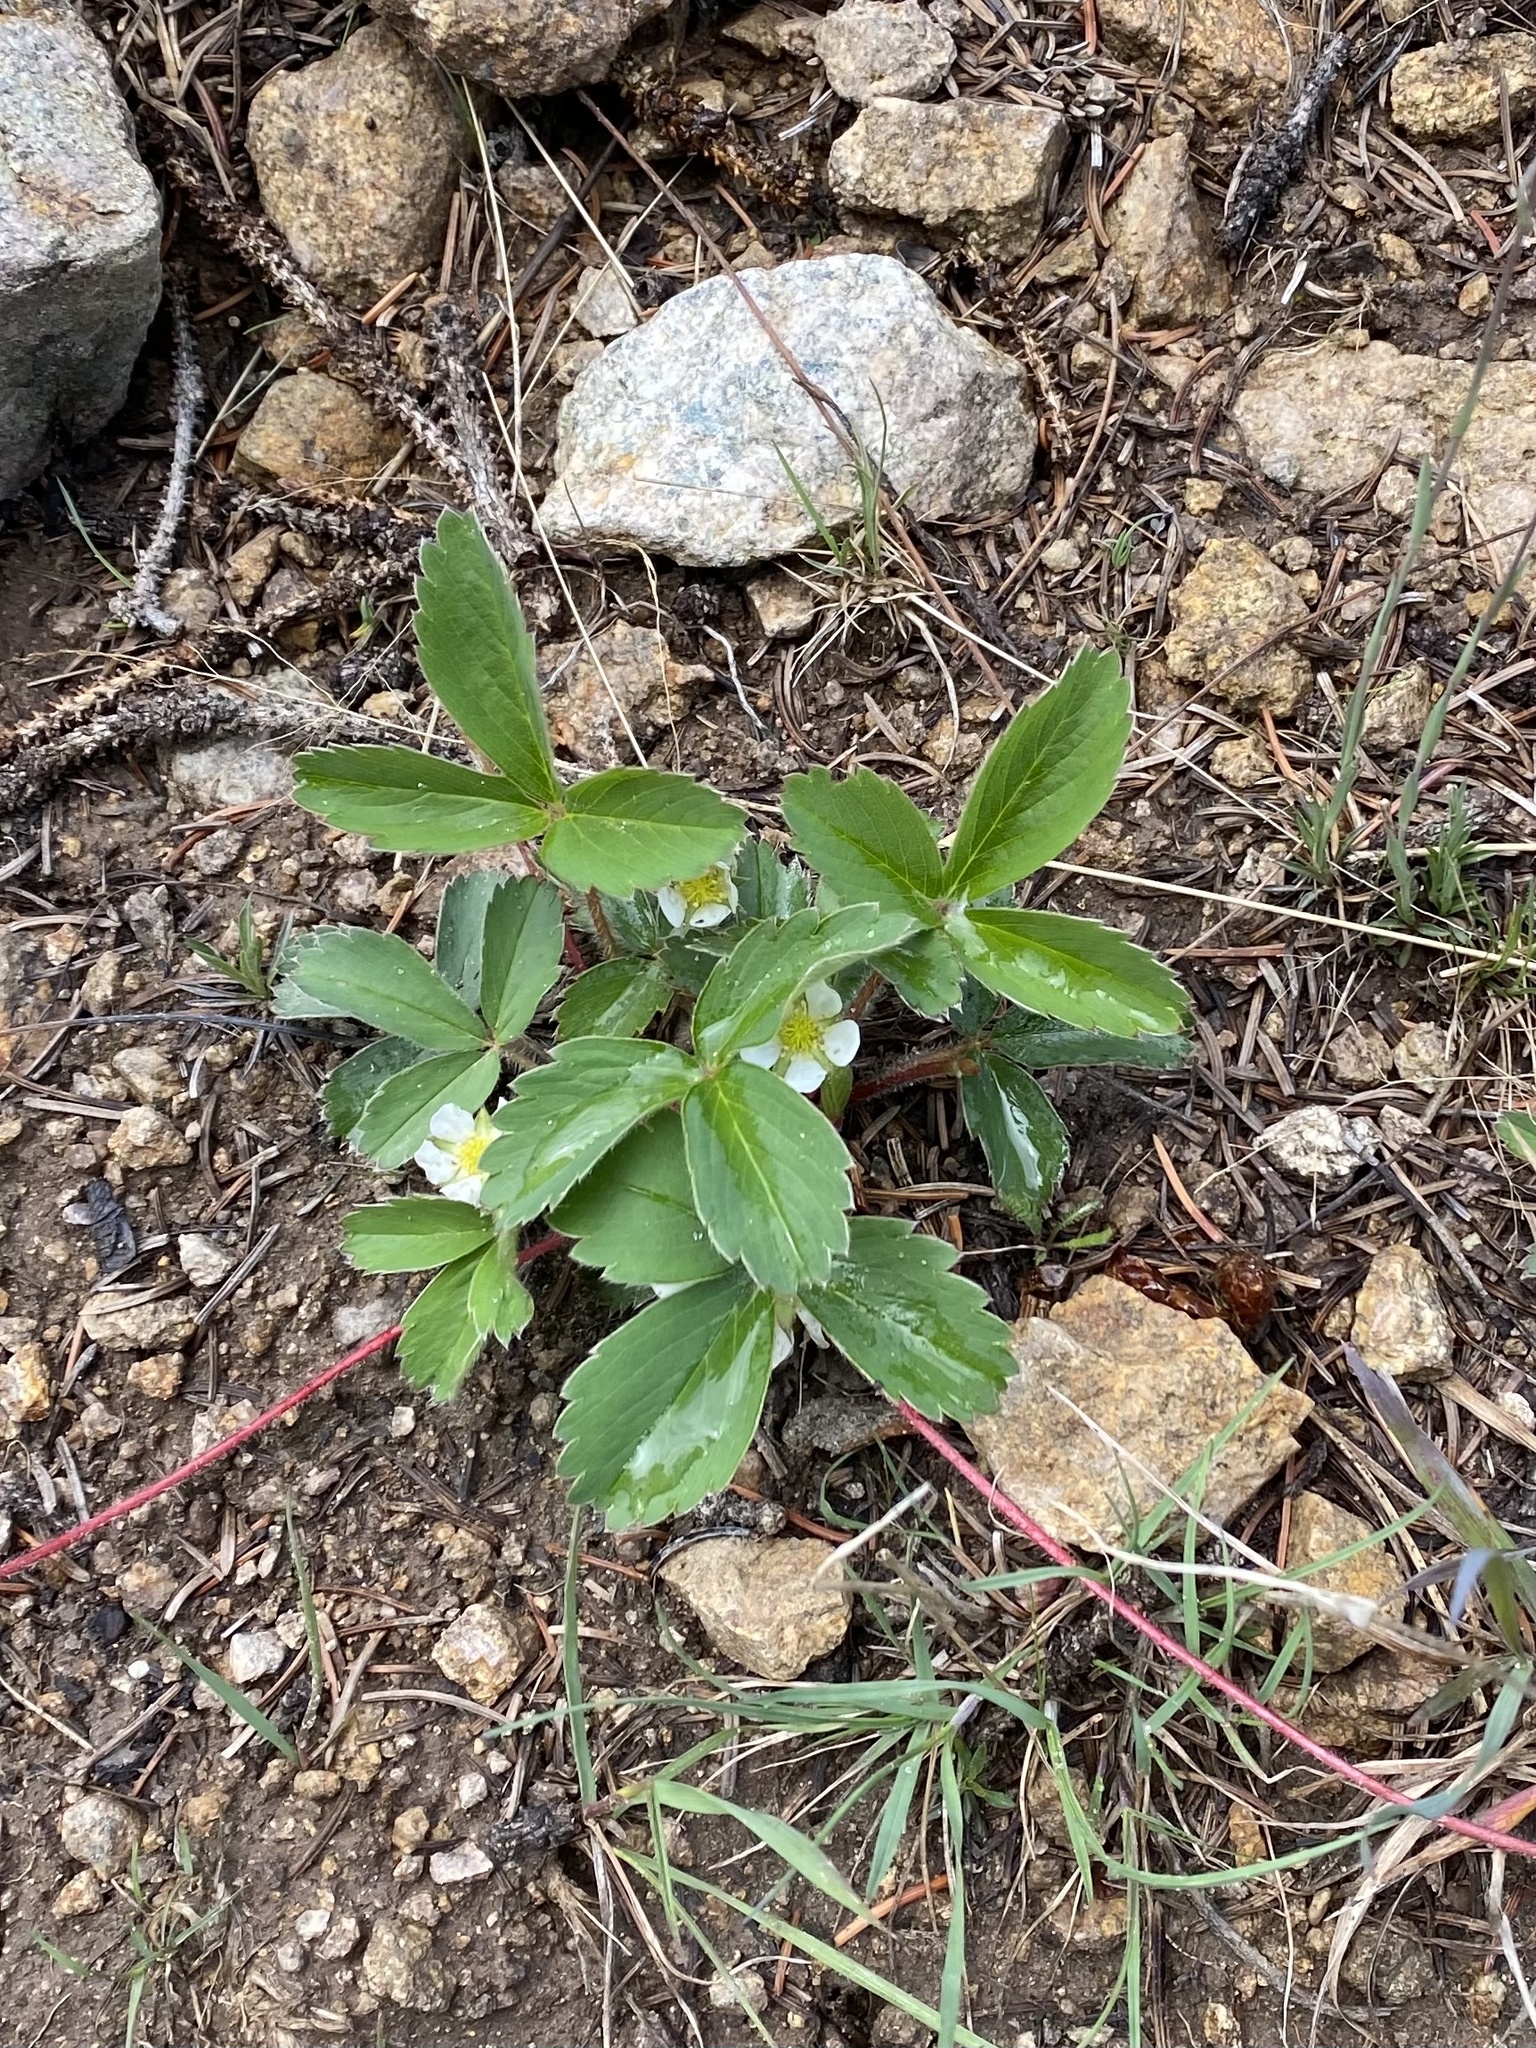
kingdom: Plantae
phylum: Tracheophyta
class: Magnoliopsida
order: Rosales
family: Rosaceae
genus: Fragaria
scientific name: Fragaria virginiana
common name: Thickleaved wild strawberry
